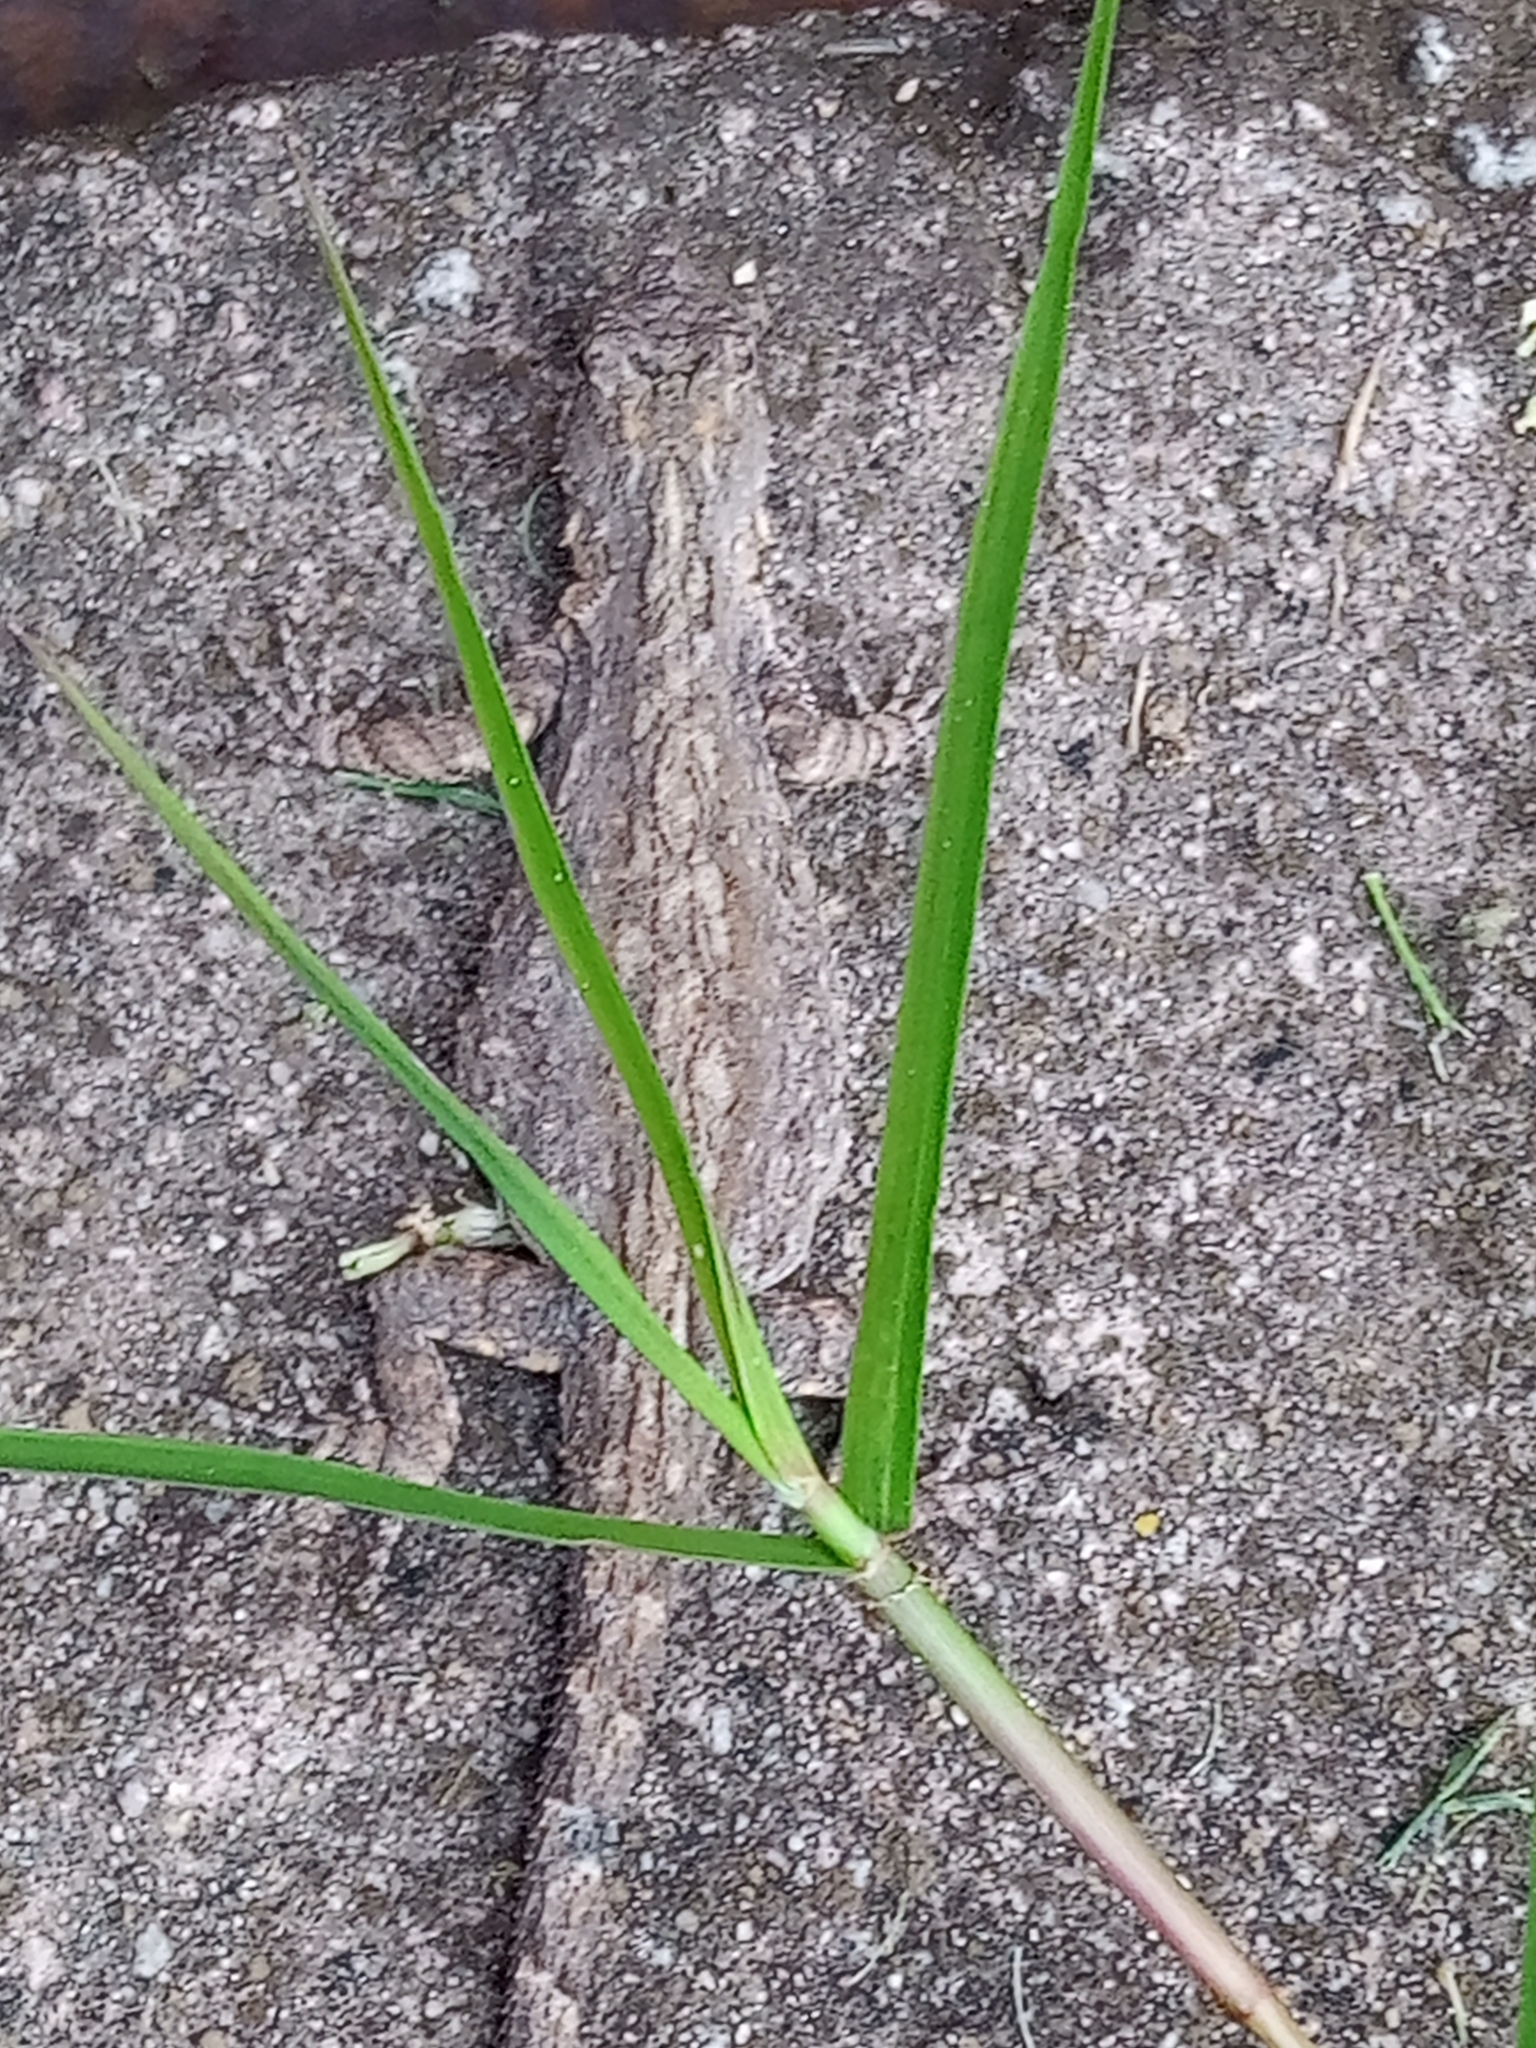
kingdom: Animalia
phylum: Chordata
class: Squamata
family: Phrynosomatidae
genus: Urosaurus
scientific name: Urosaurus bicarinatus
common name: Tropical tree lizard
